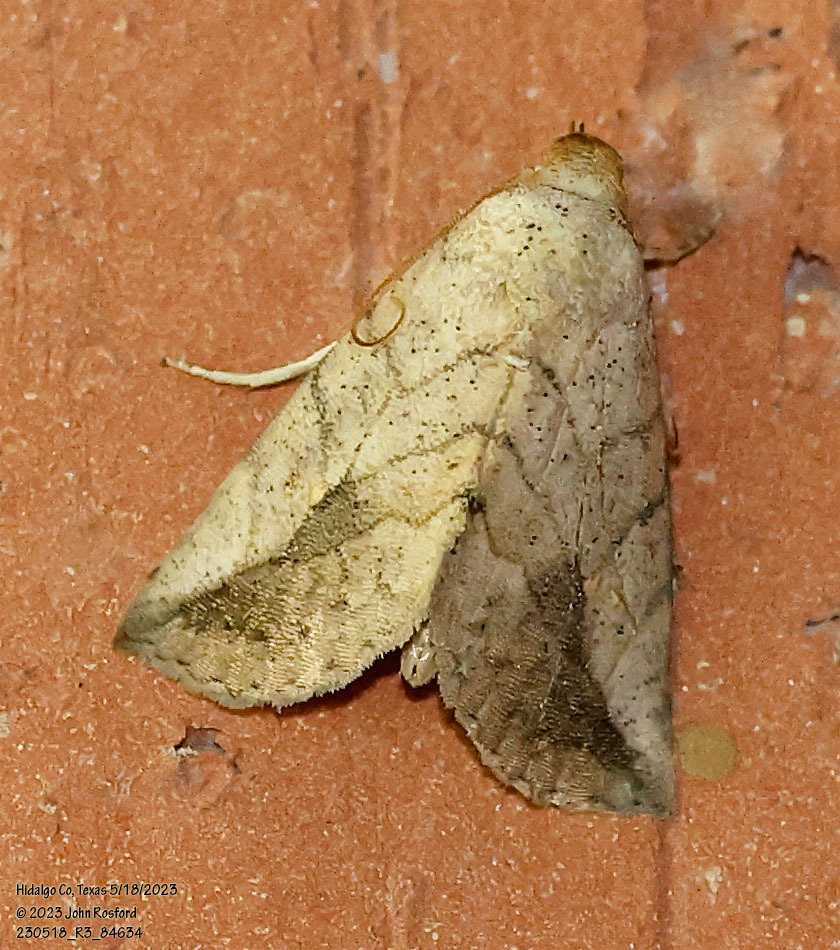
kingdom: Animalia
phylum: Arthropoda
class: Insecta
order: Lepidoptera
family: Erebidae
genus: Isogona
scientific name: Isogona snowi
